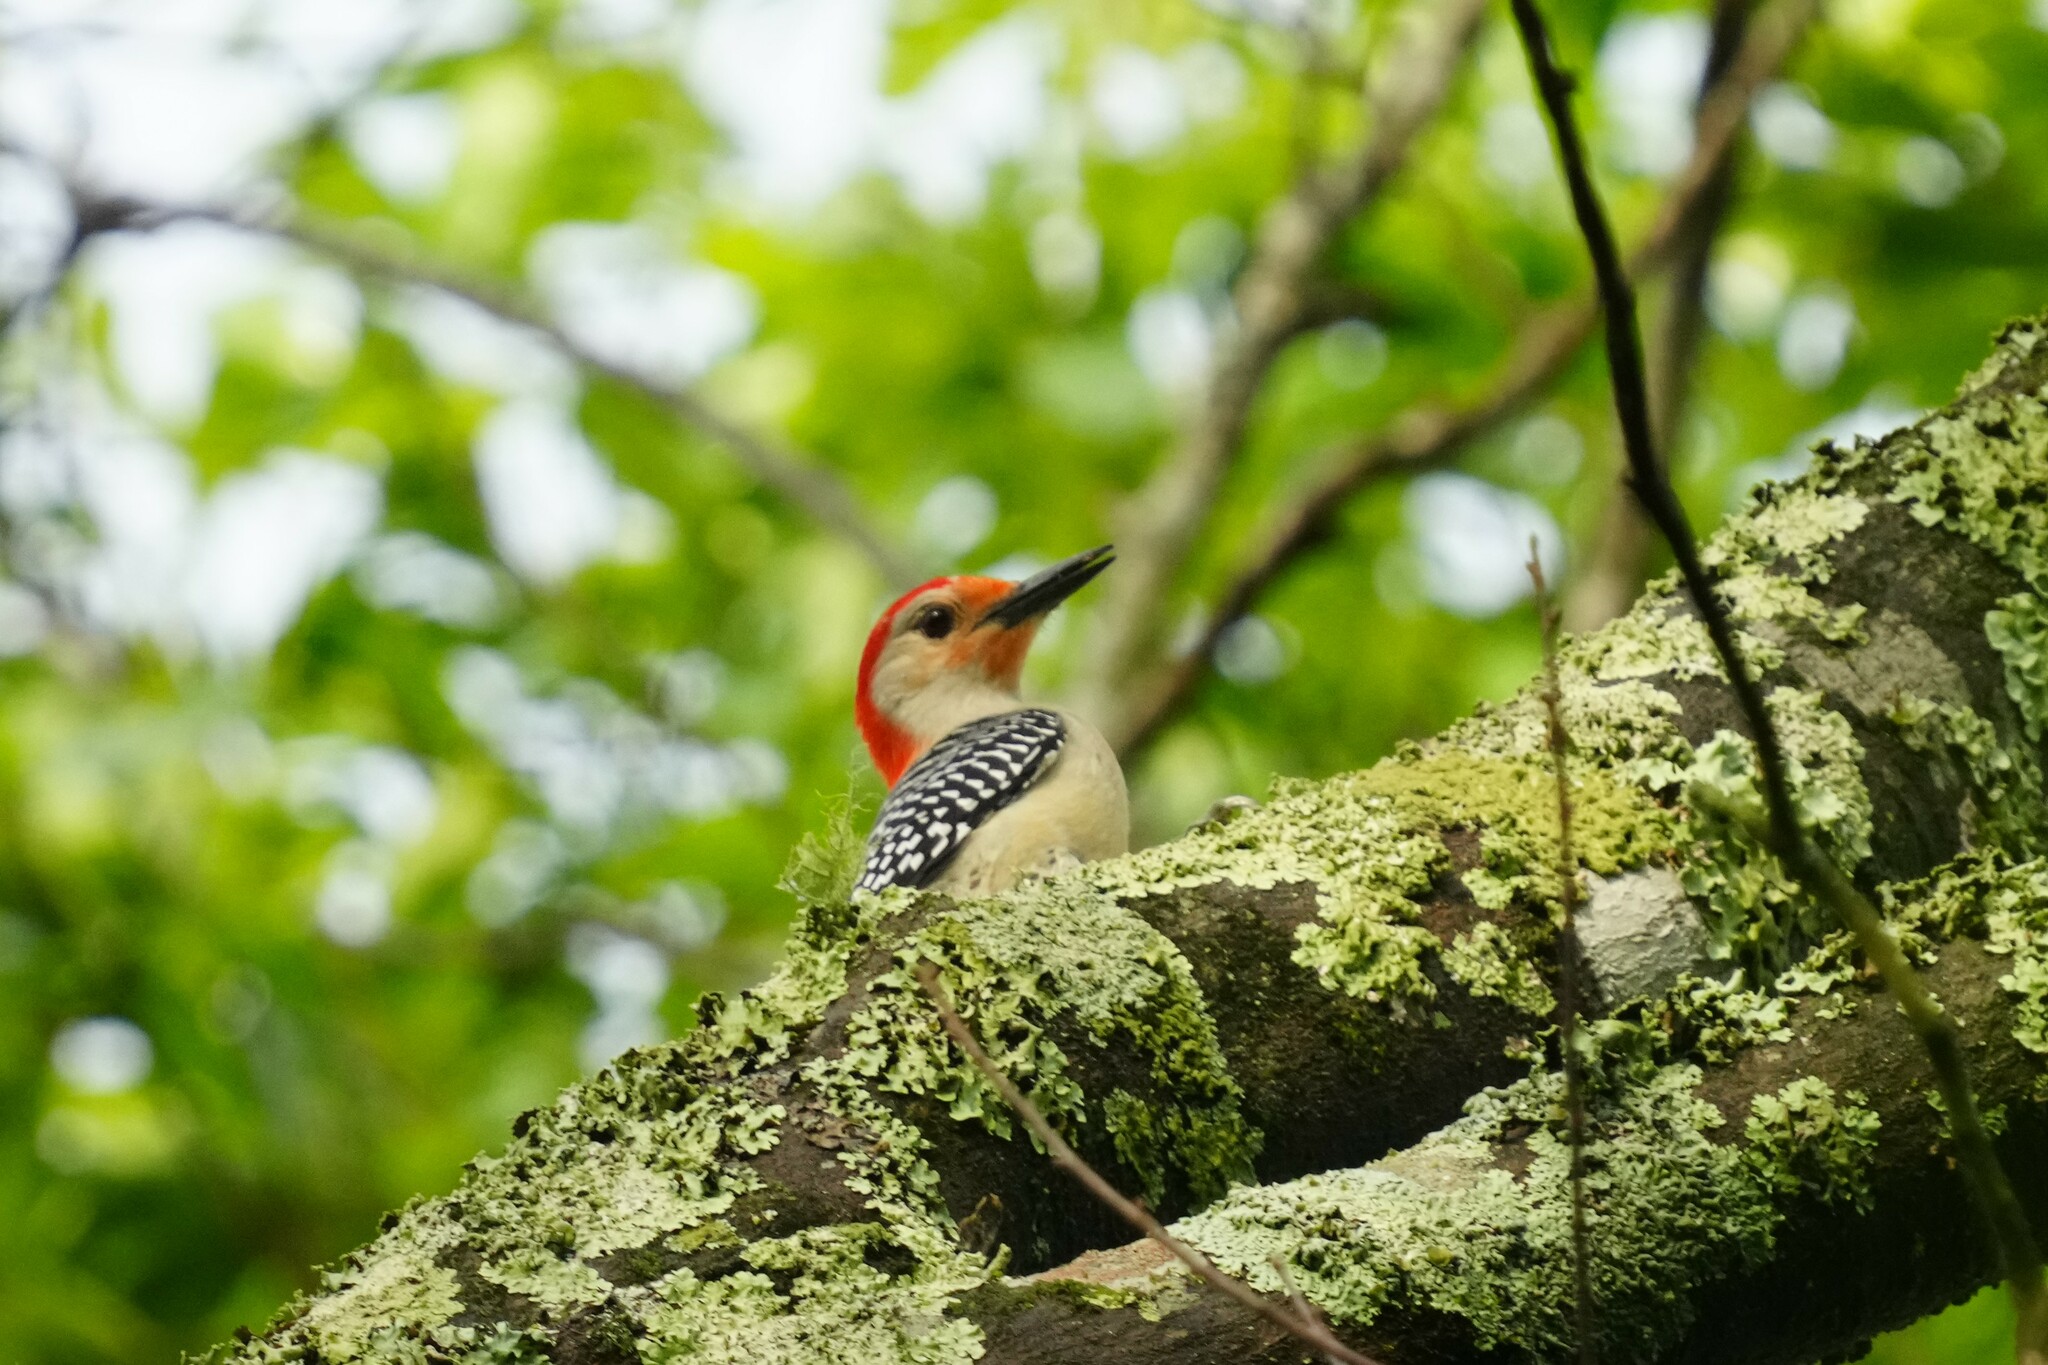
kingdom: Animalia
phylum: Chordata
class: Aves
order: Piciformes
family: Picidae
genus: Melanerpes
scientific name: Melanerpes carolinus
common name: Red-bellied woodpecker
